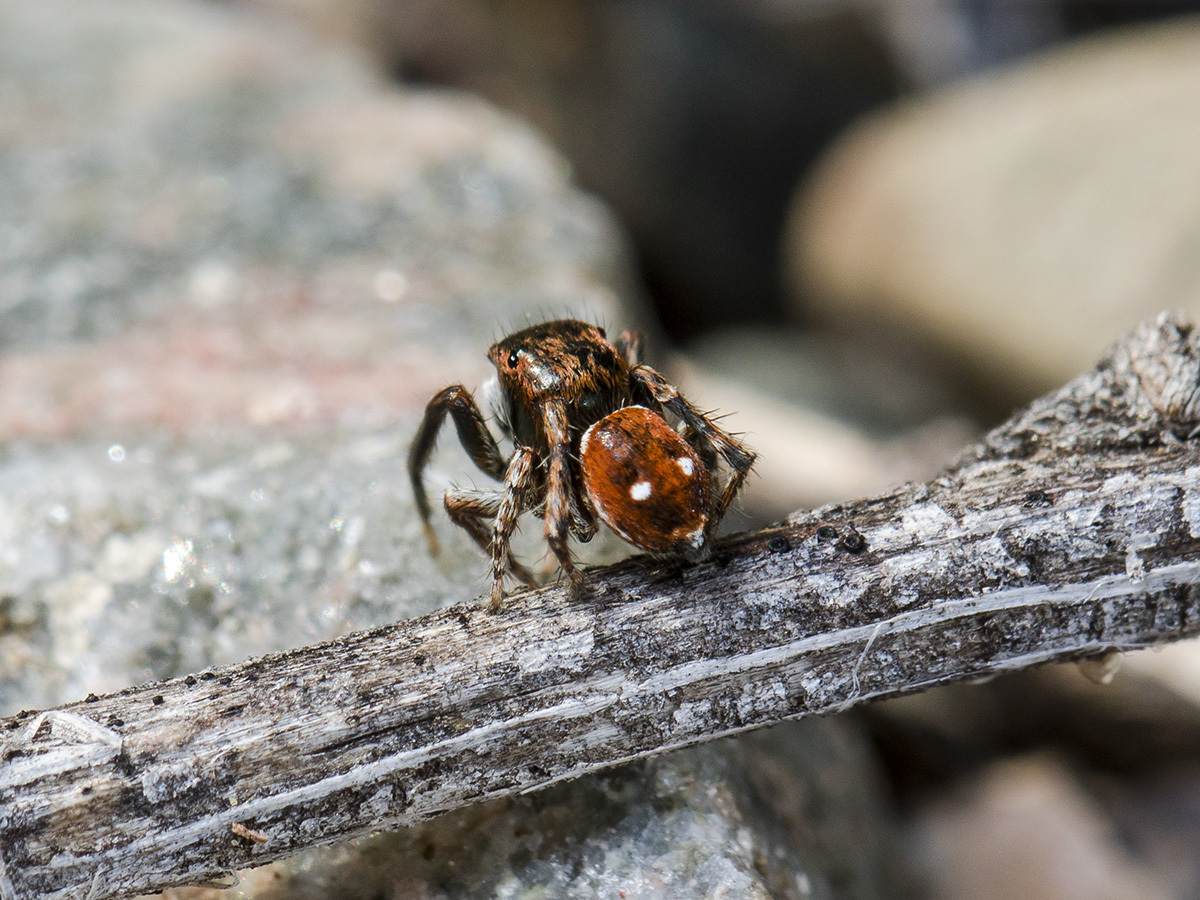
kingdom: Animalia
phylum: Arthropoda
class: Arachnida
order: Araneae
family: Salticidae
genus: Attulus
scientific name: Attulus mirandus
